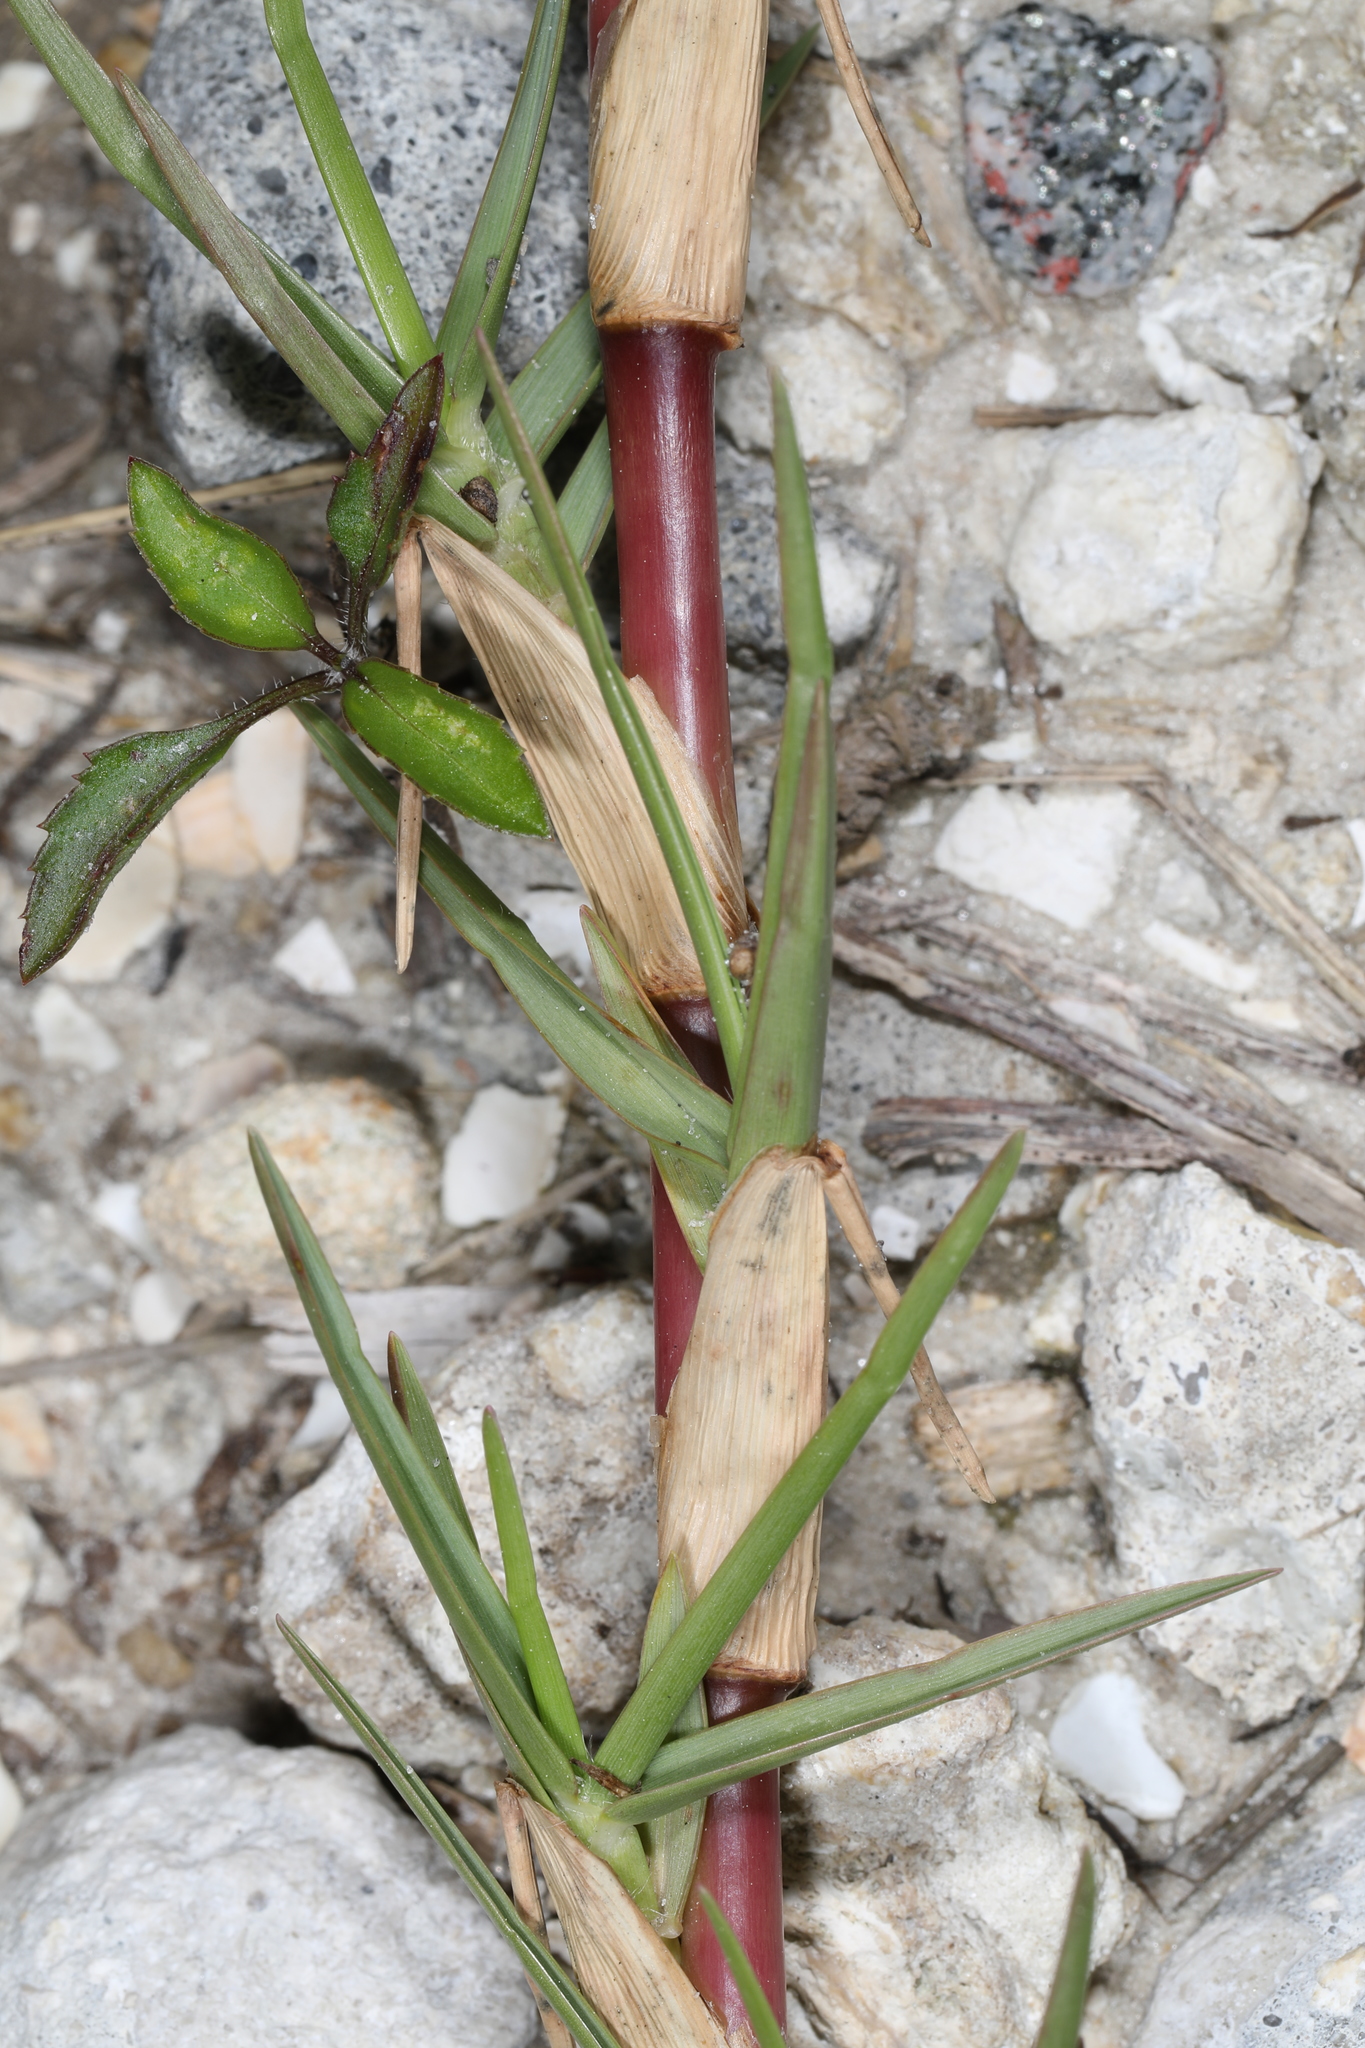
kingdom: Plantae
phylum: Tracheophyta
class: Liliopsida
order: Poales
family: Poaceae
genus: Axonopus
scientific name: Axonopus furcatus
